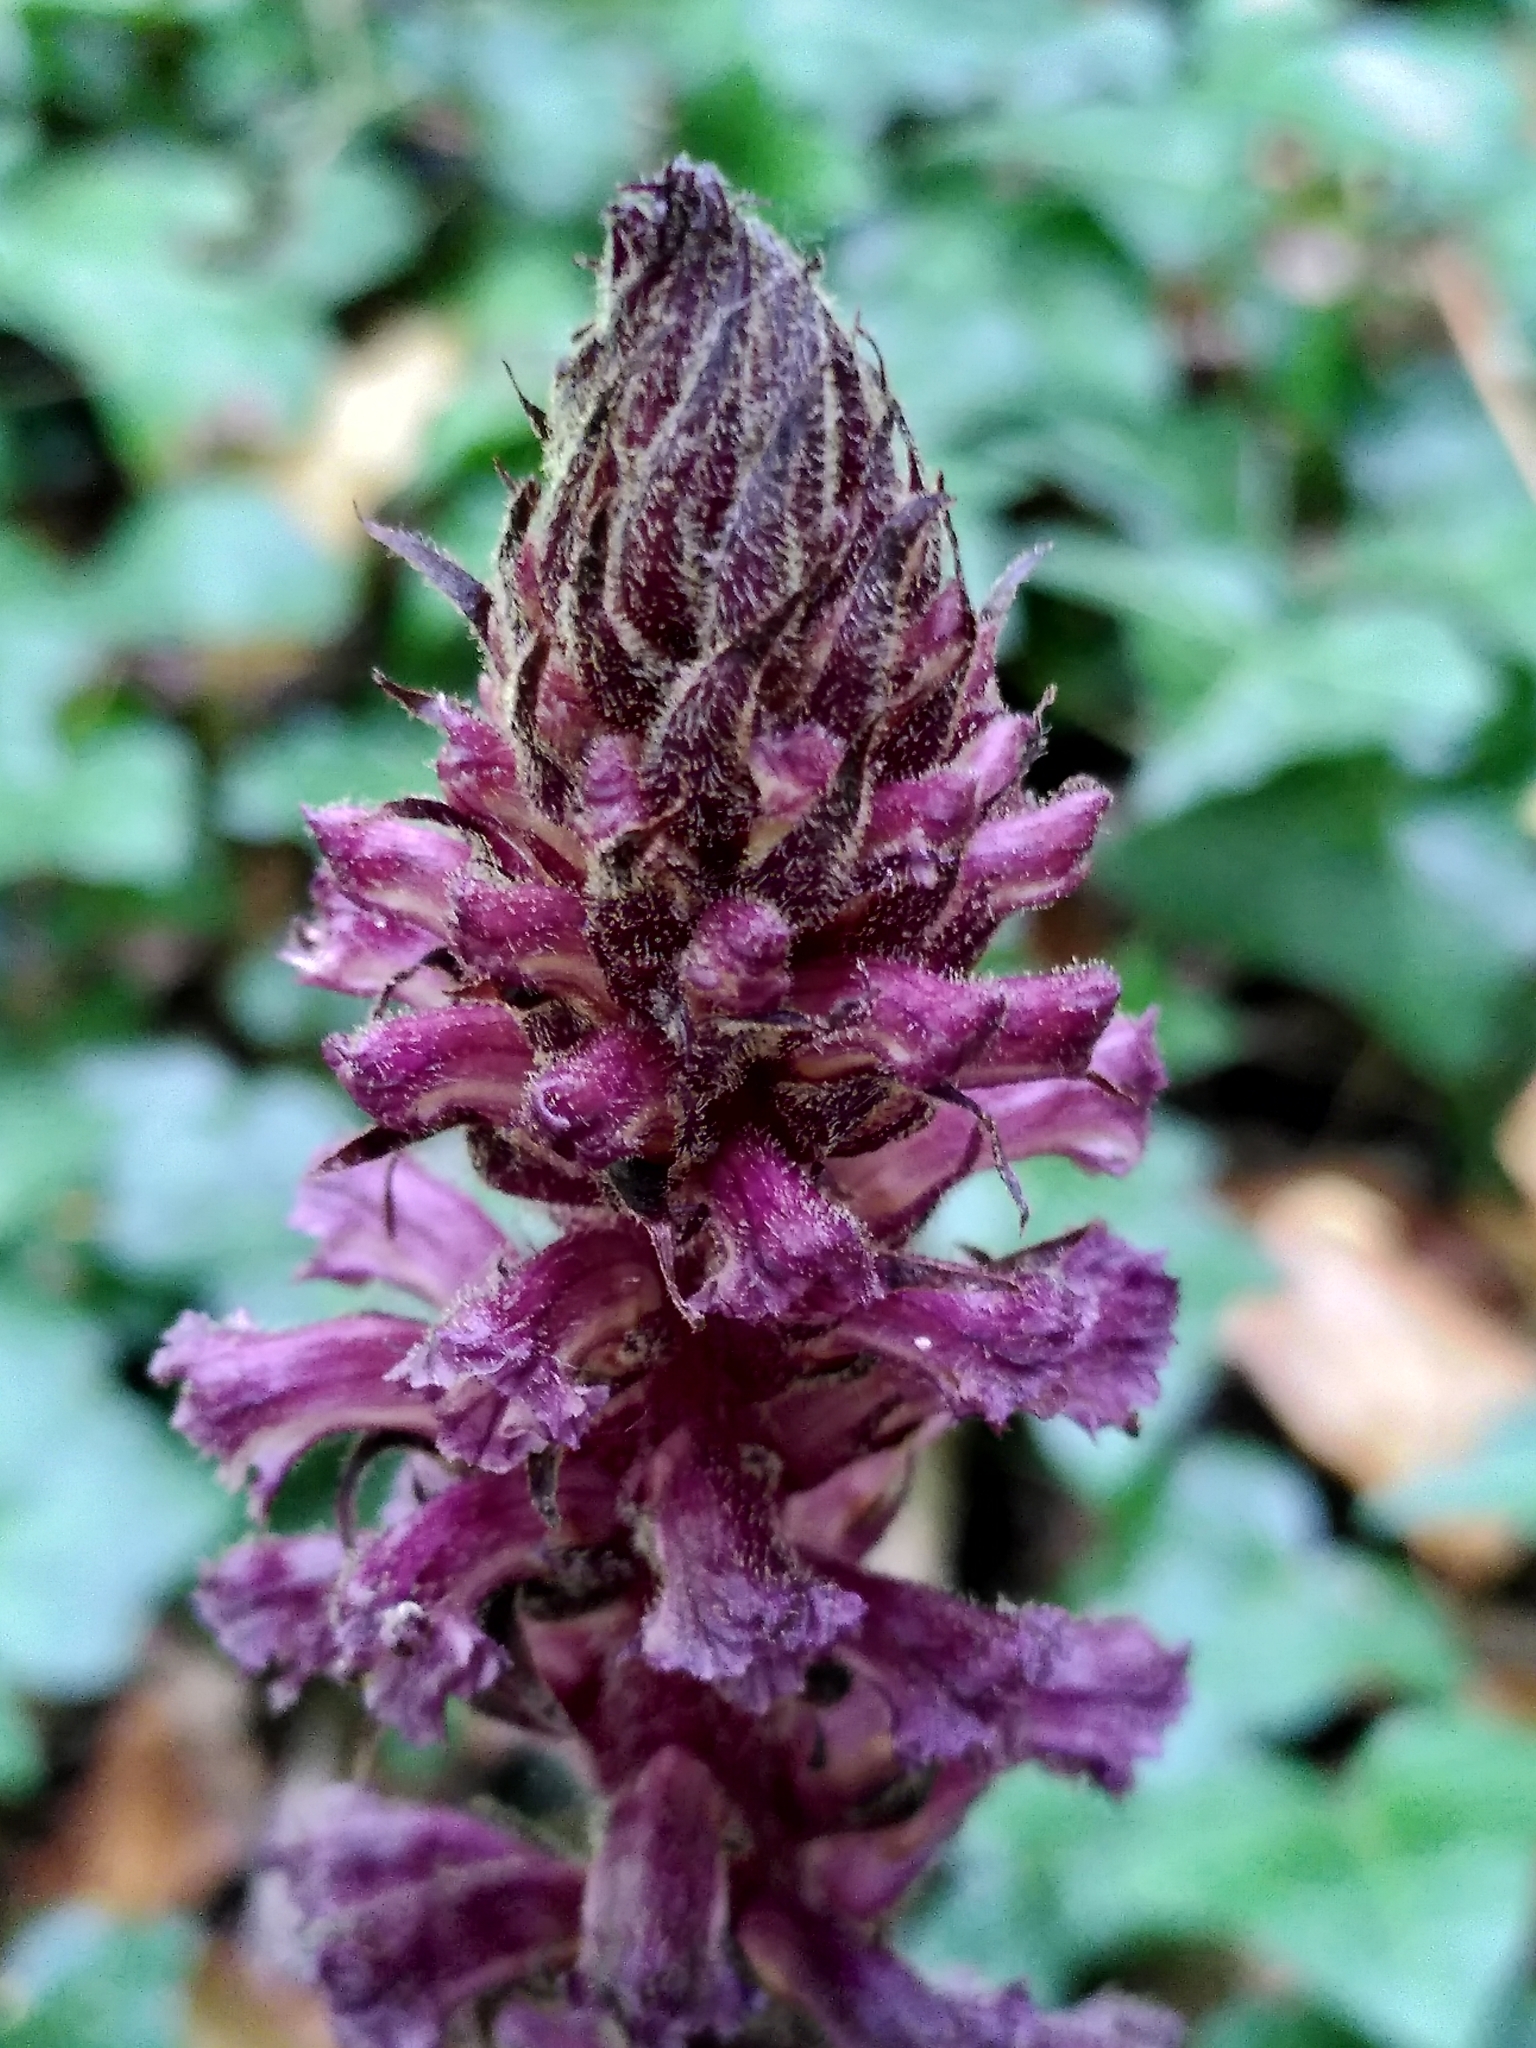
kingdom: Plantae
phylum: Tracheophyta
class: Magnoliopsida
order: Lamiales
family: Orobanchaceae
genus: Orobanche
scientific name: Orobanche hederae
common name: Ivy broomrape
